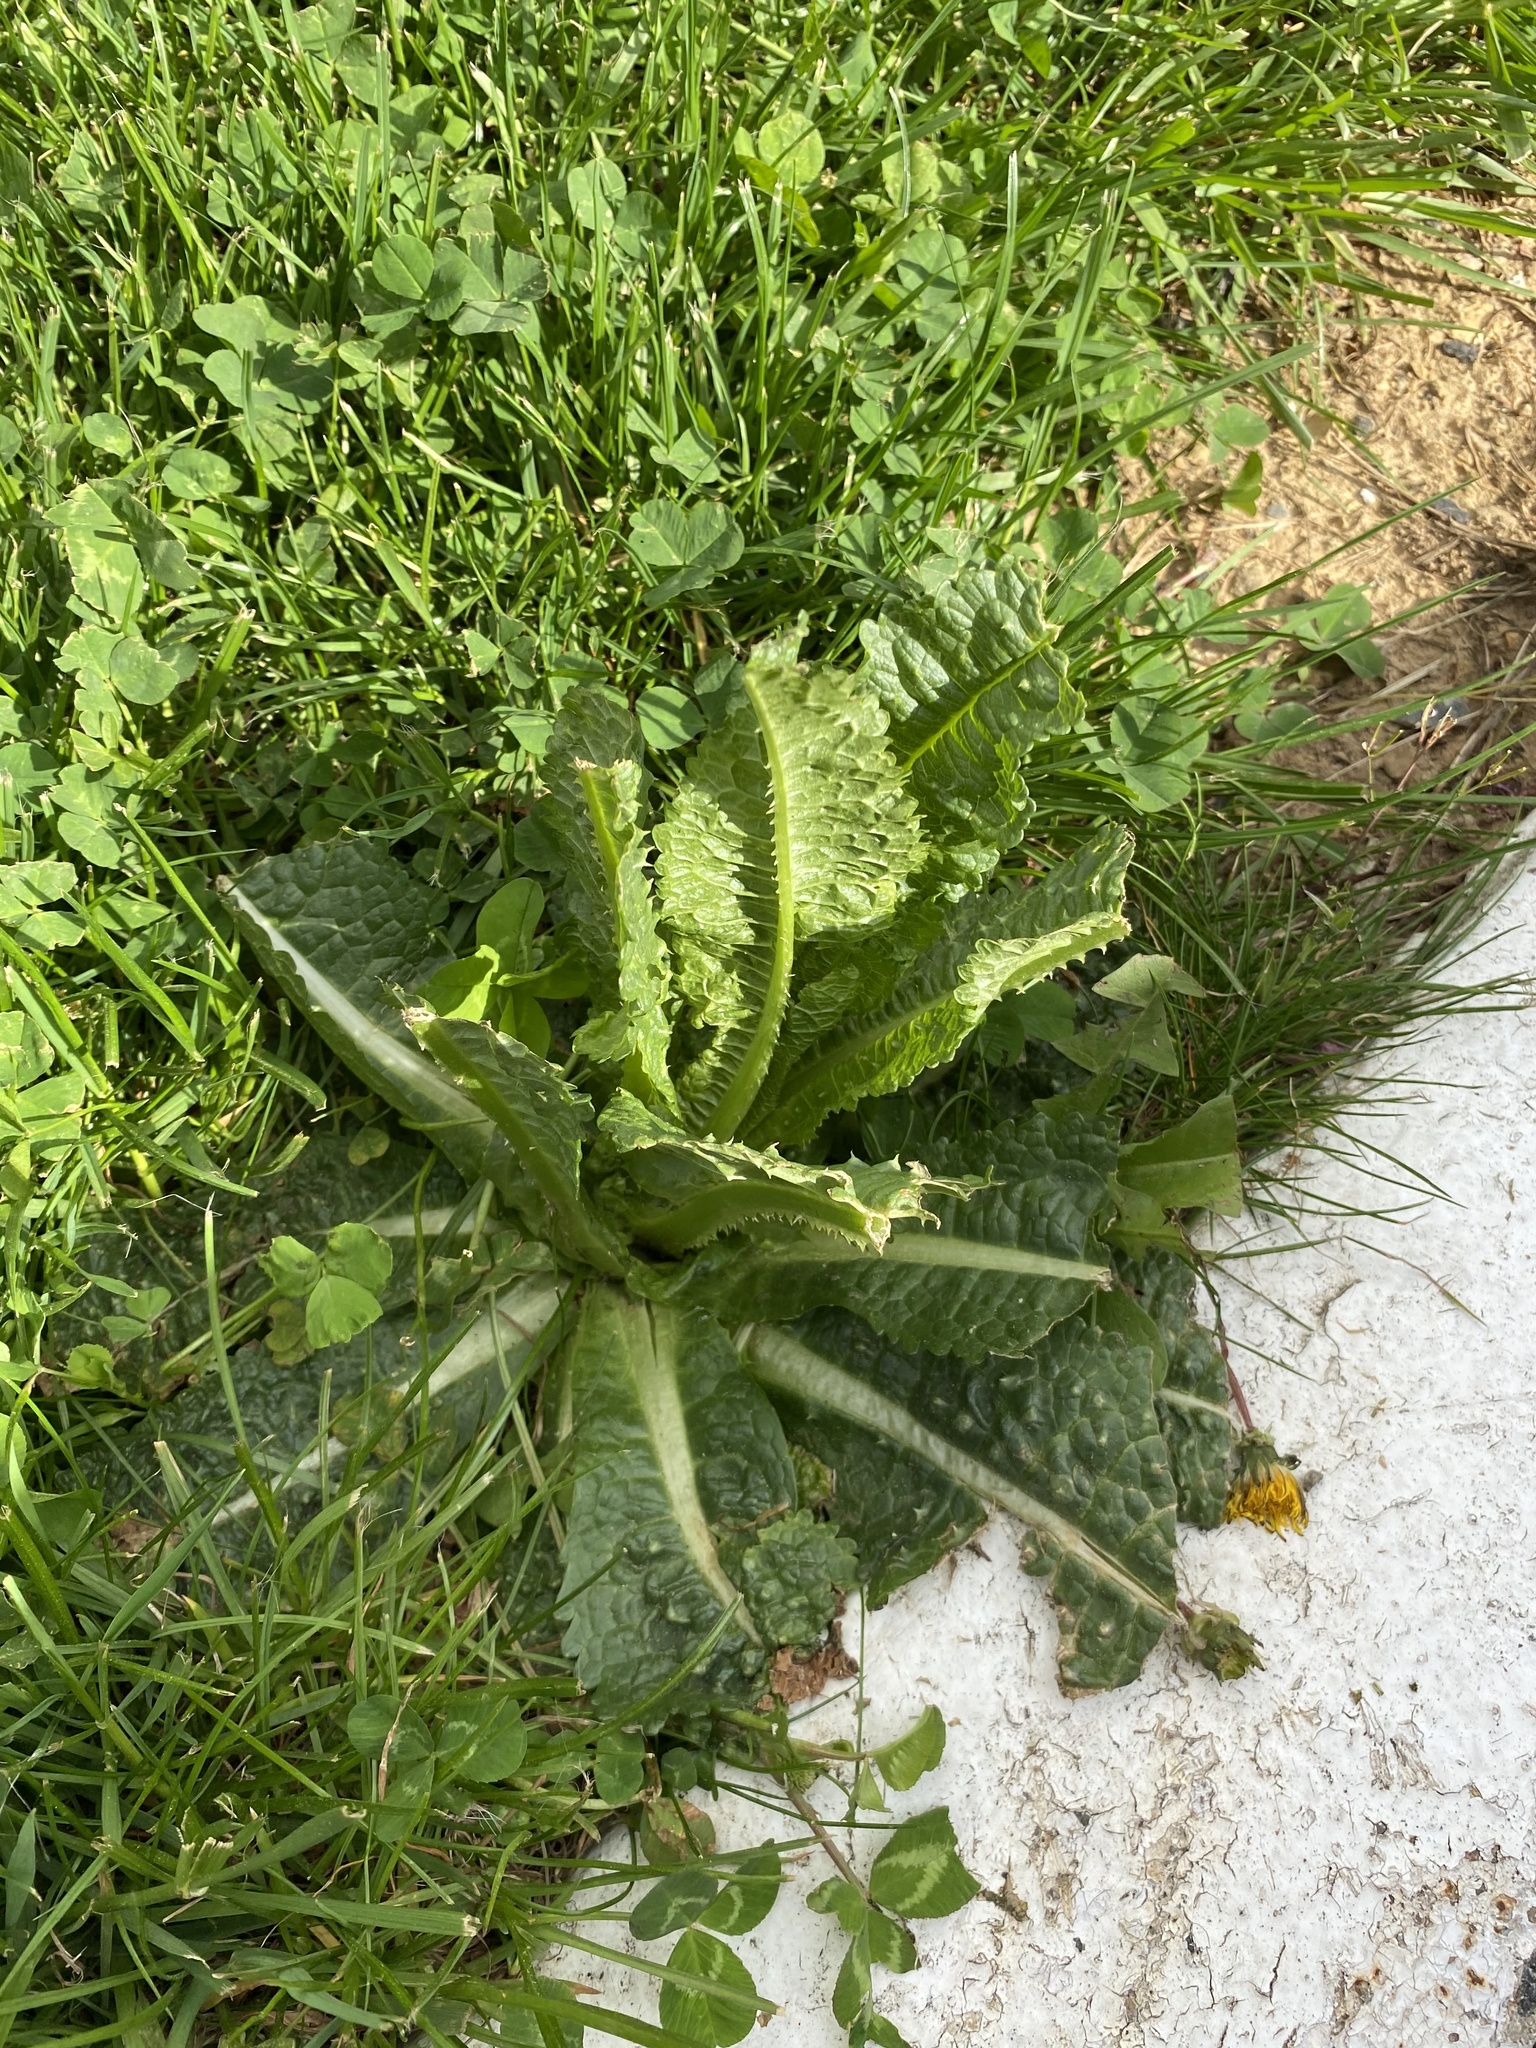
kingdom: Plantae
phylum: Tracheophyta
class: Magnoliopsida
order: Dipsacales
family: Caprifoliaceae
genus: Dipsacus
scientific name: Dipsacus fullonum
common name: Teasel
